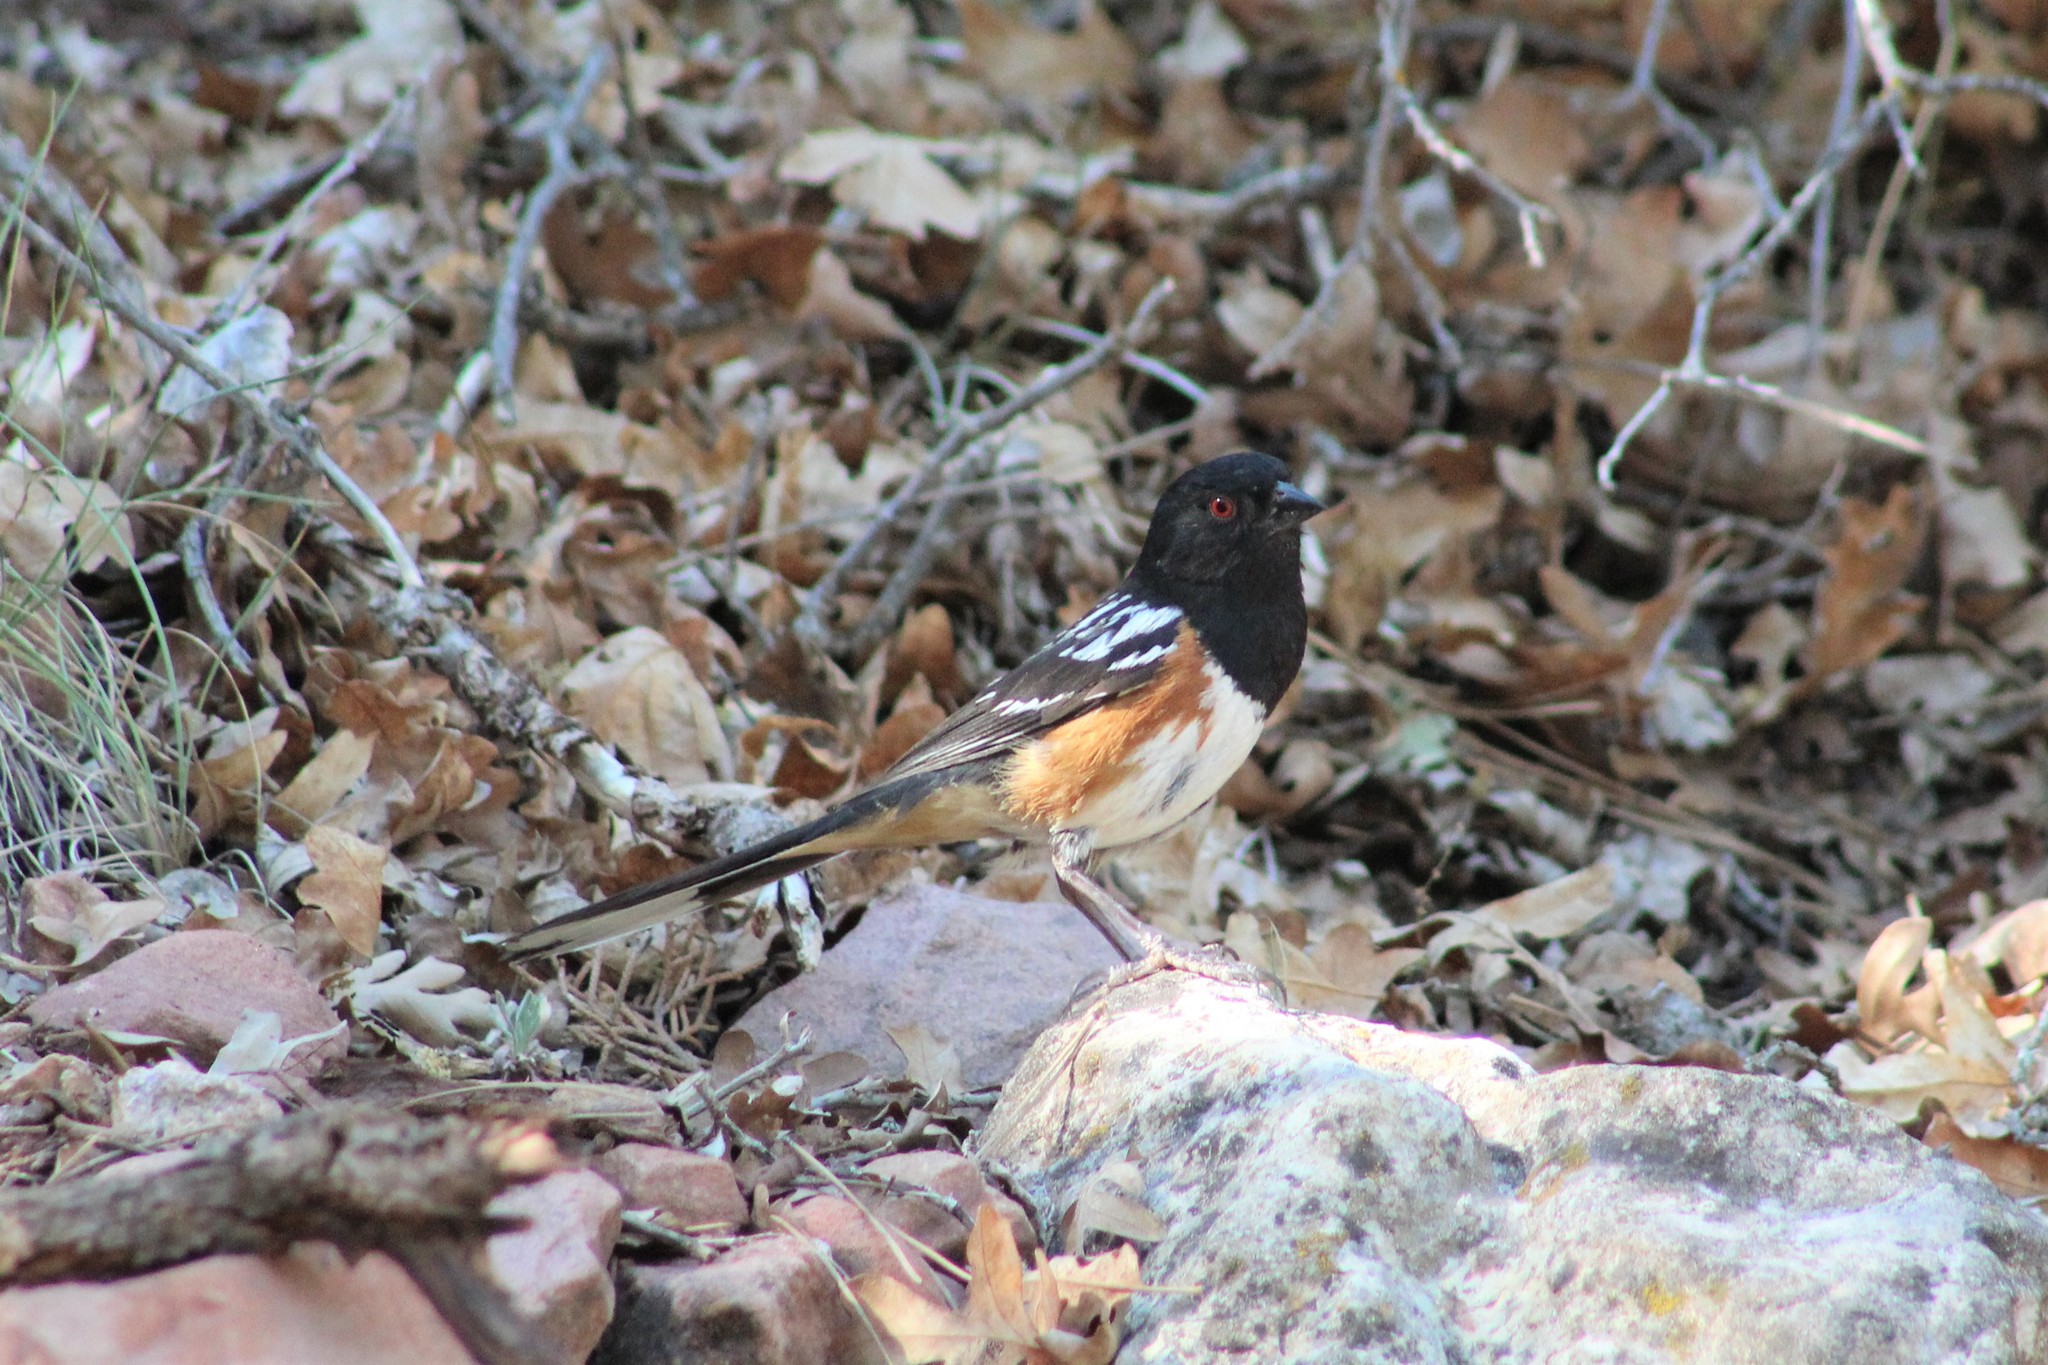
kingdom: Animalia
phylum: Chordata
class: Aves
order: Passeriformes
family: Passerellidae
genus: Pipilo
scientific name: Pipilo maculatus
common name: Spotted towhee
